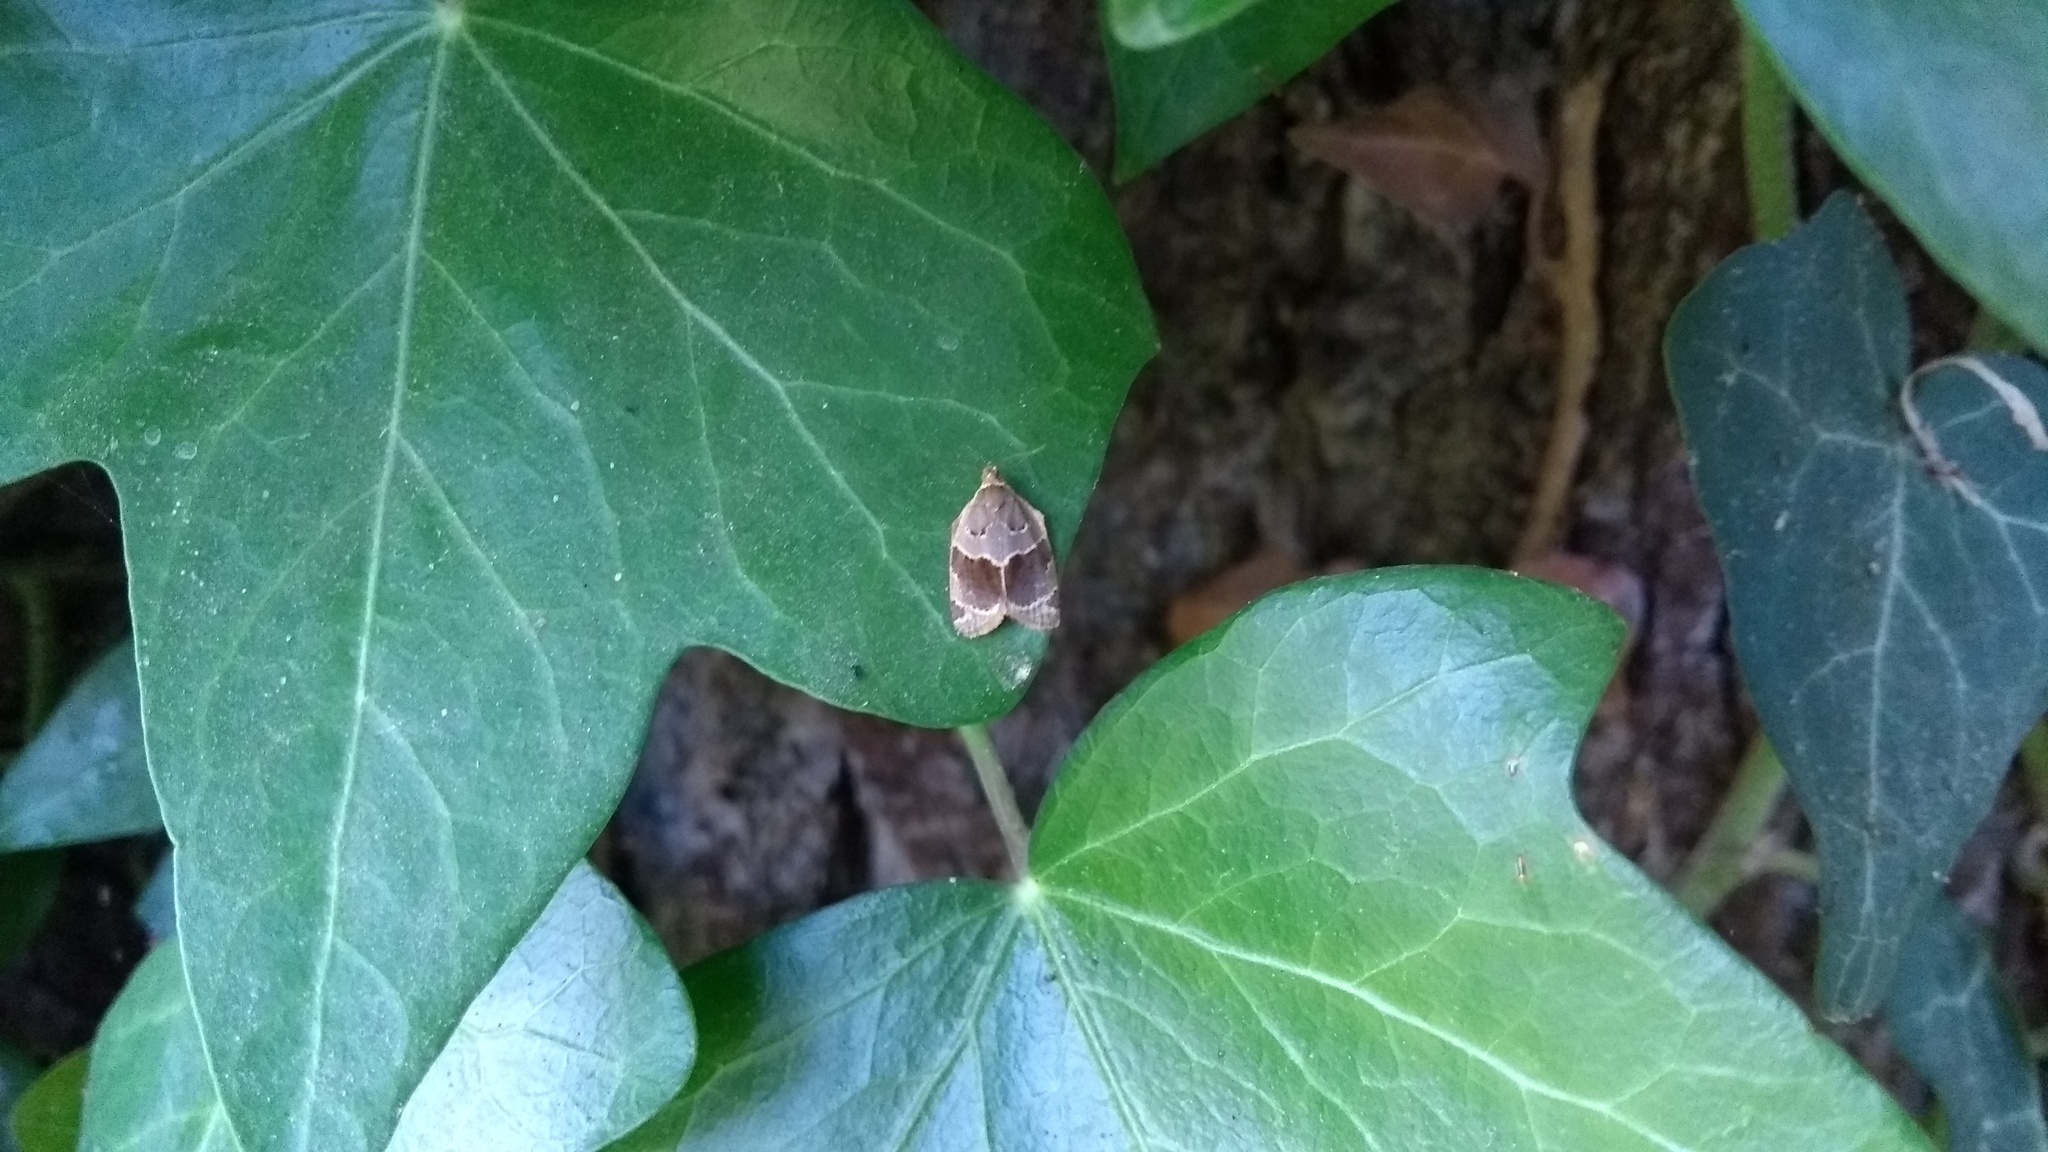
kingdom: Animalia
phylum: Arthropoda
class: Insecta
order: Lepidoptera
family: Tortricidae
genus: Clepsis
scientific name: Clepsis dumicolana
